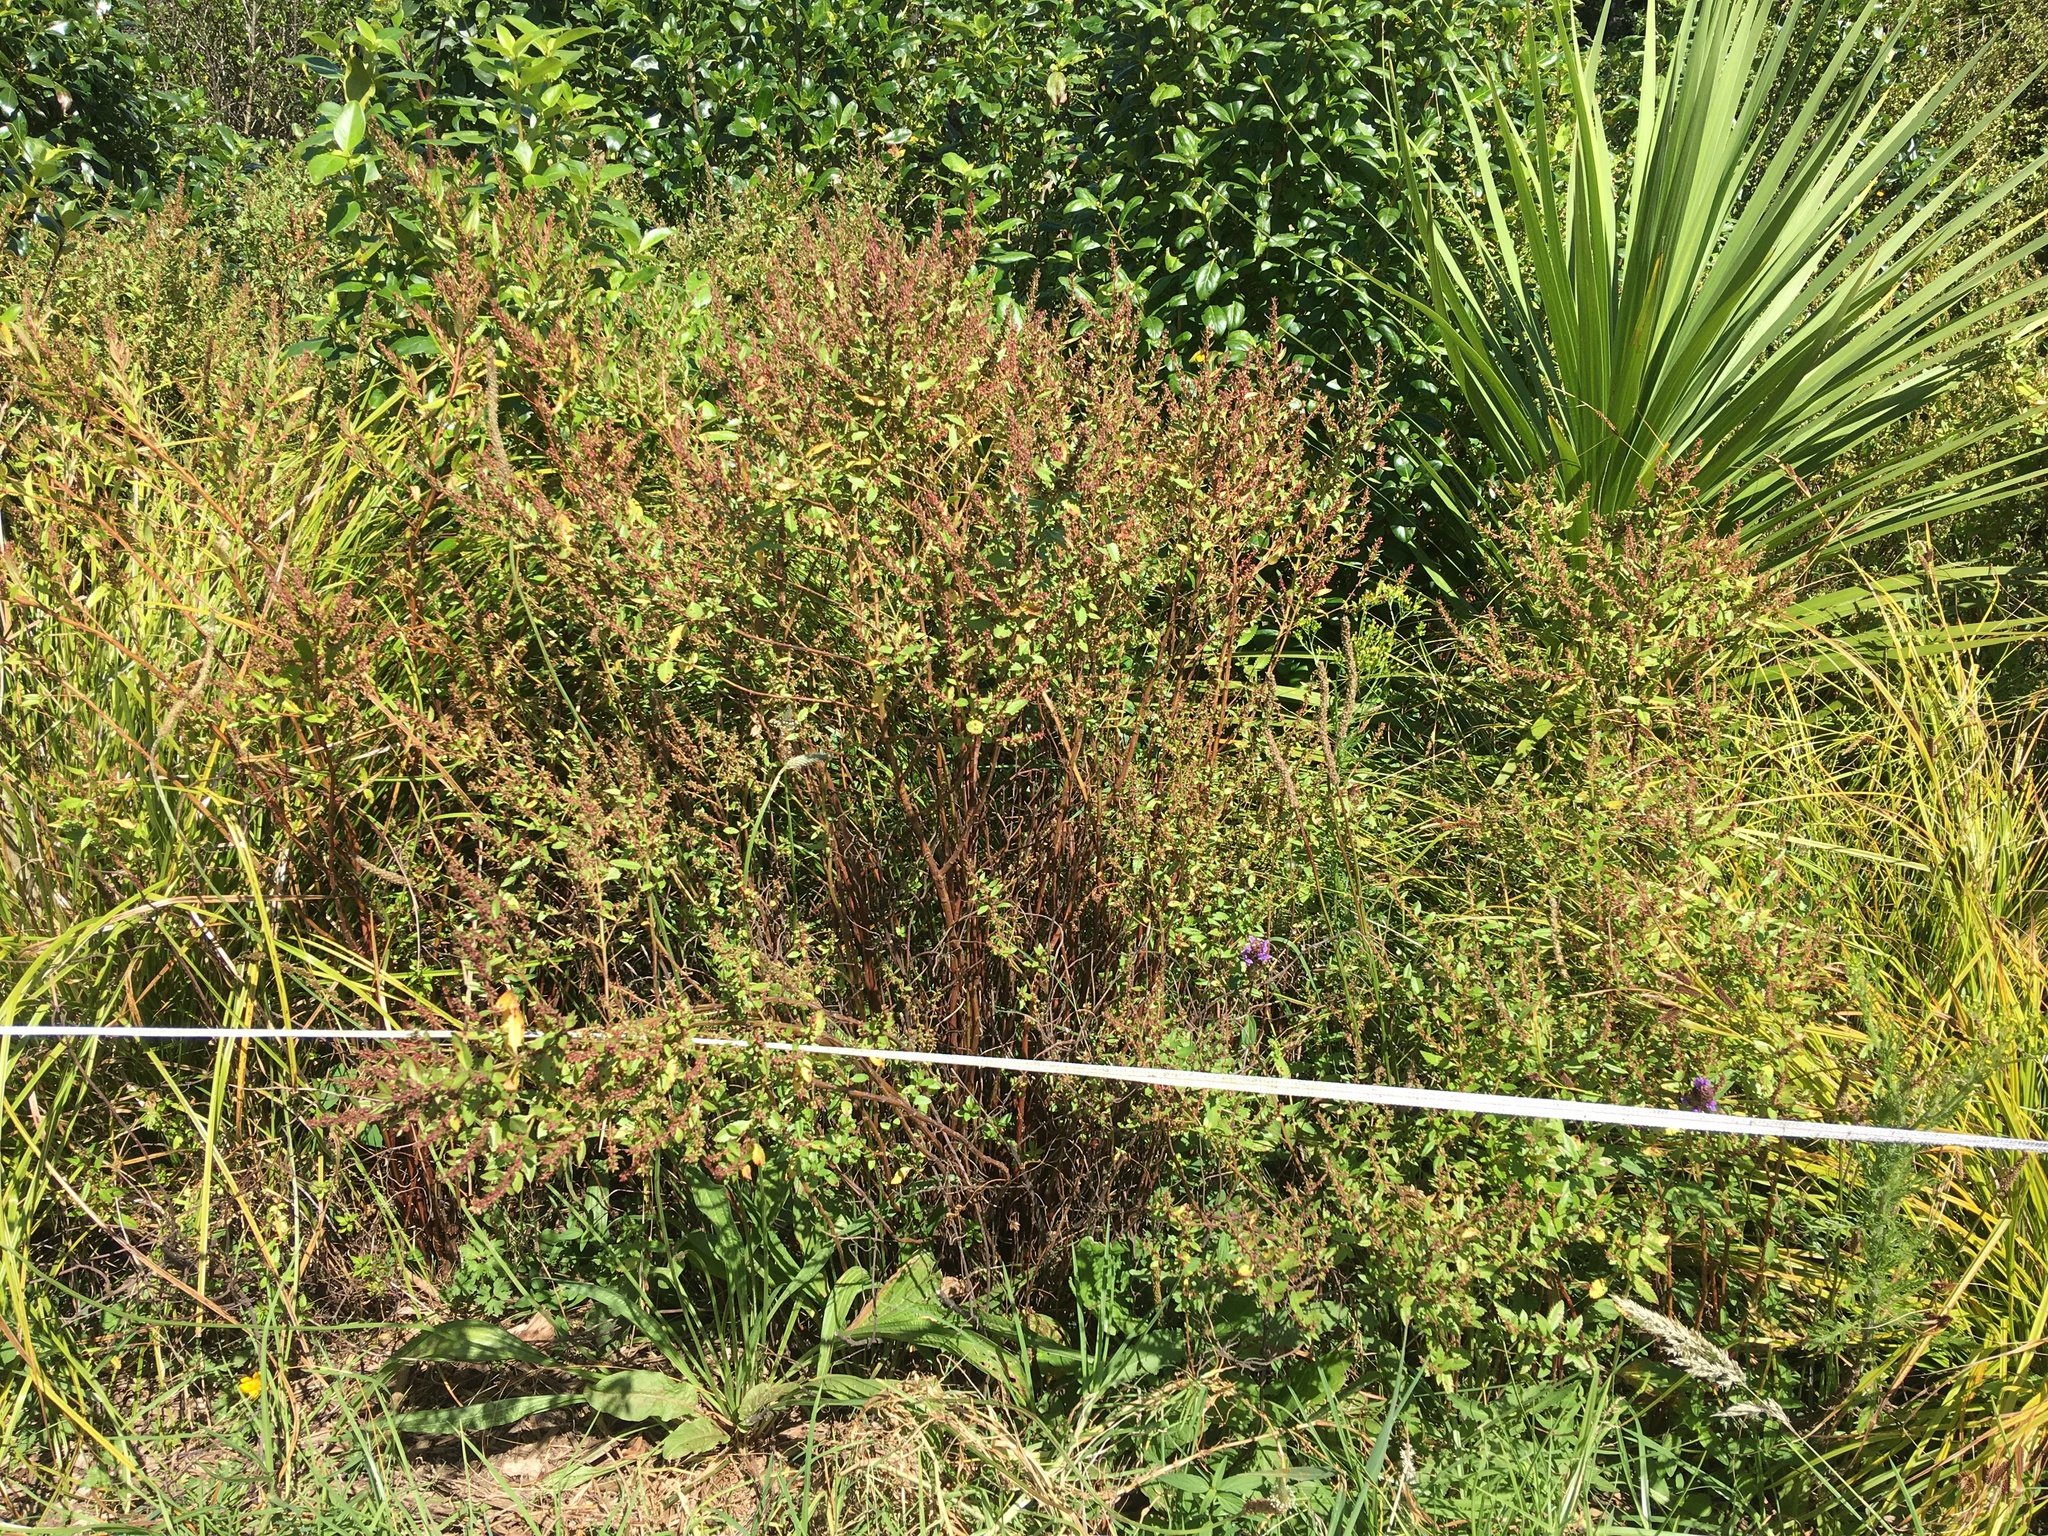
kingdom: Plantae
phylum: Tracheophyta
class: Magnoliopsida
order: Saxifragales
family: Haloragaceae
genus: Haloragis
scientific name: Haloragis erecta
